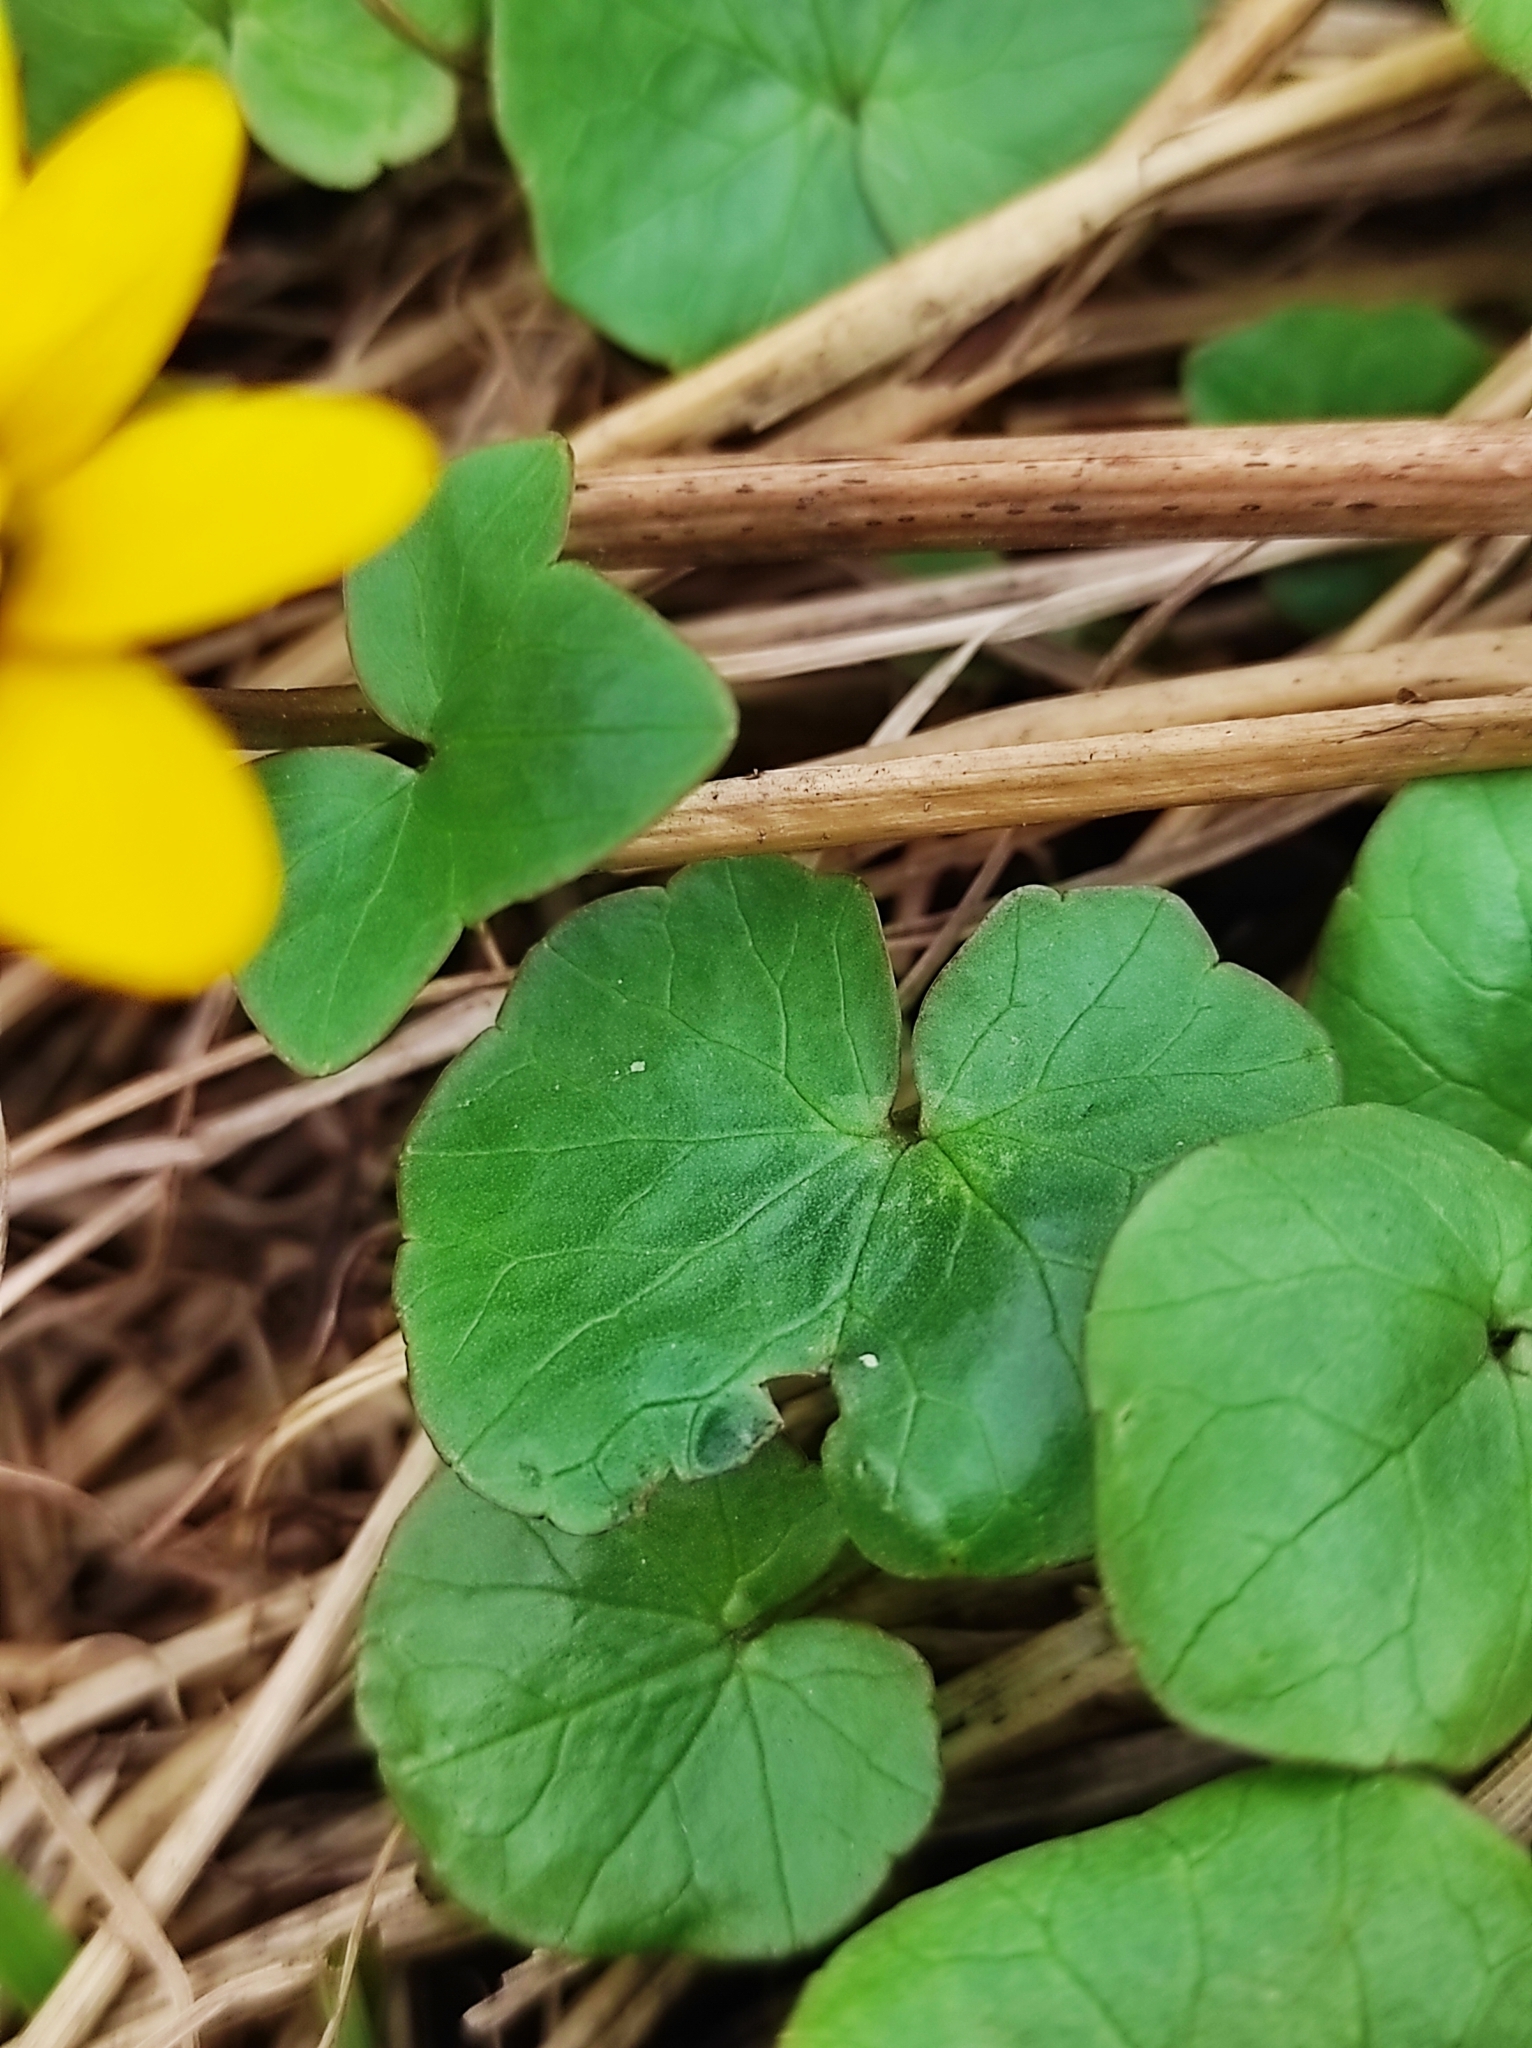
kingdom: Plantae
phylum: Tracheophyta
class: Magnoliopsida
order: Ranunculales
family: Ranunculaceae
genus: Ficaria
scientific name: Ficaria verna
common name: Lesser celandine
